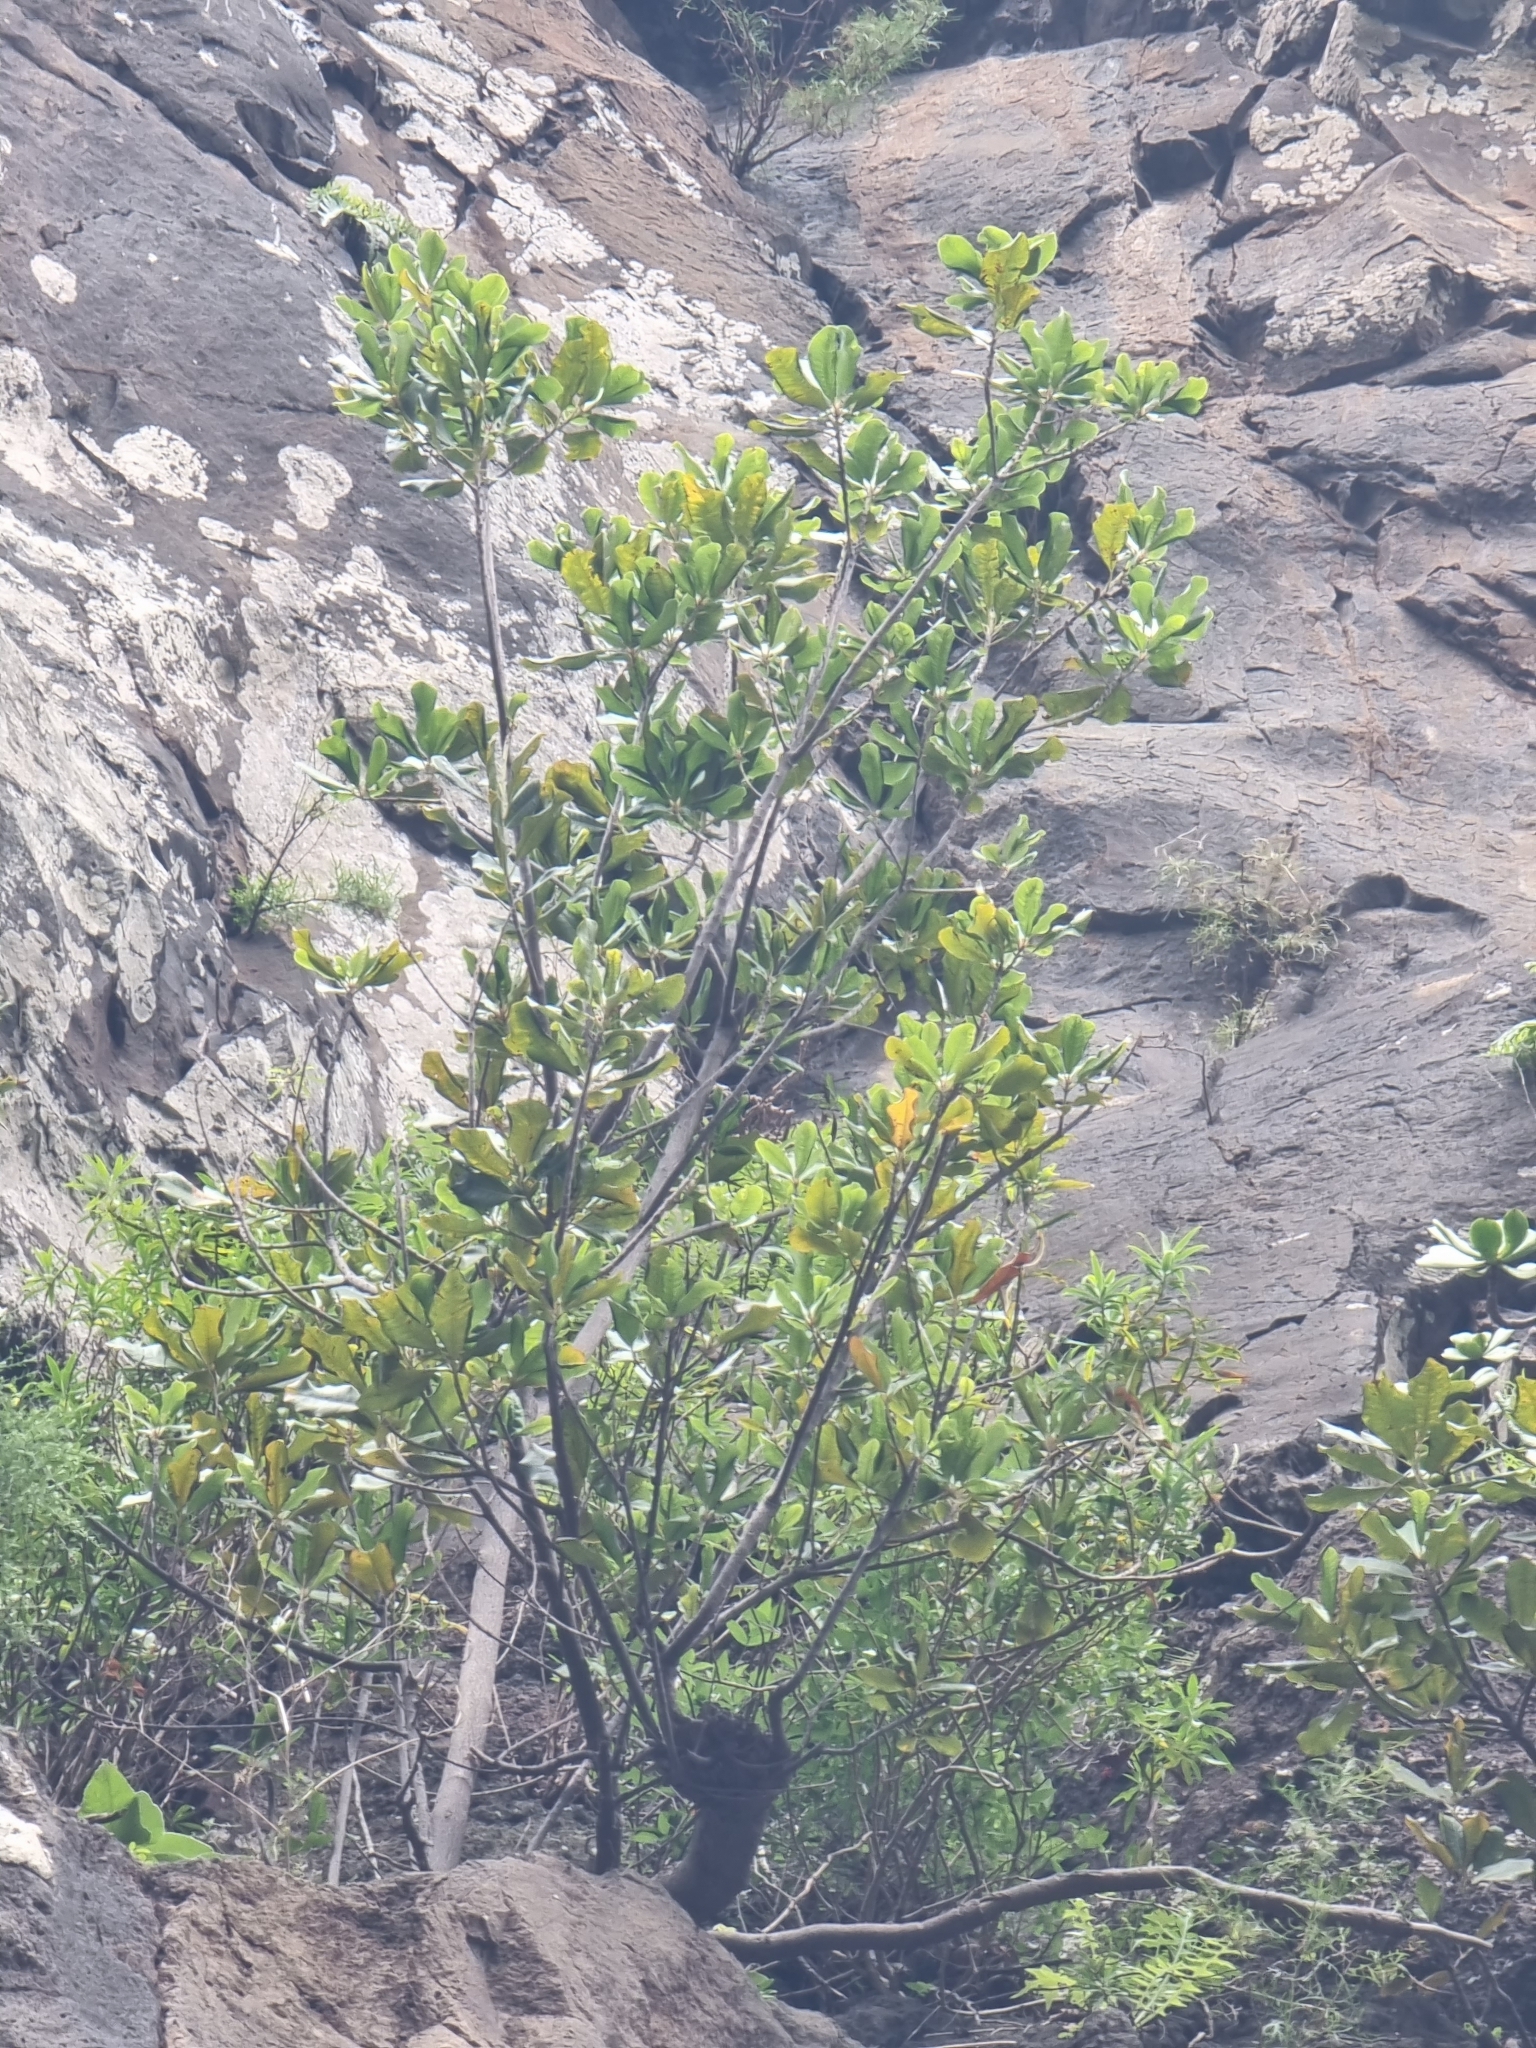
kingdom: Plantae
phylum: Tracheophyta
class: Magnoliopsida
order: Ericales
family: Sapotaceae
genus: Sideroxylon
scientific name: Sideroxylon mirmulans
